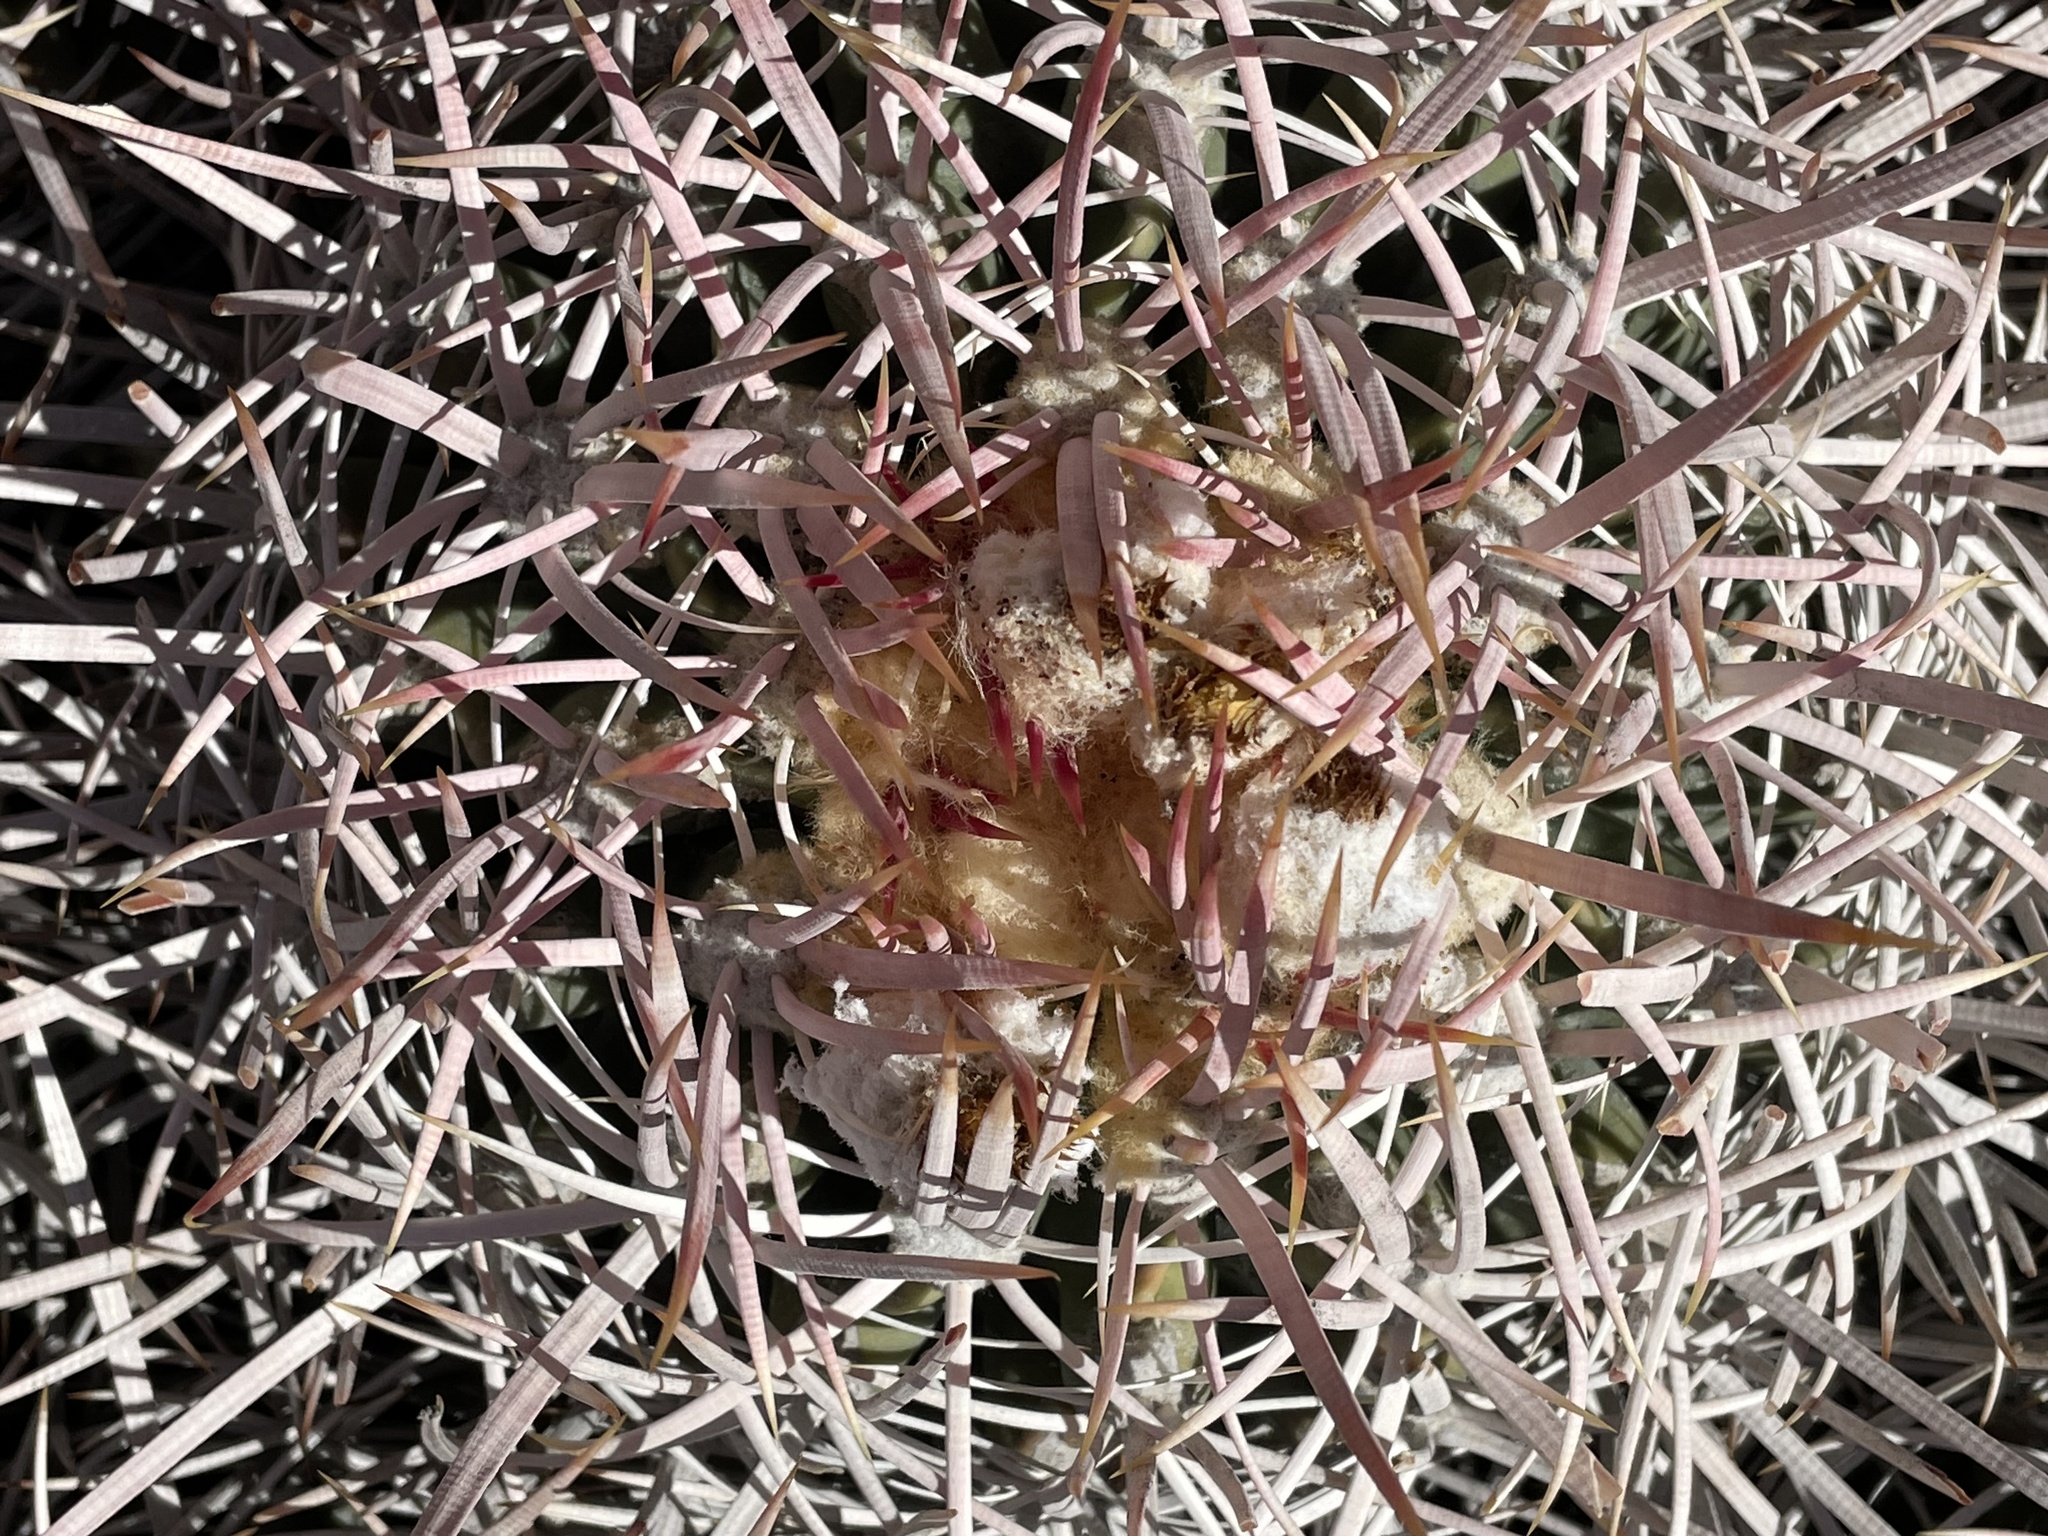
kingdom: Plantae
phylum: Tracheophyta
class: Magnoliopsida
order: Caryophyllales
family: Cactaceae
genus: Echinocactus
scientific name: Echinocactus polycephalus
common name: Cottontop cactus
